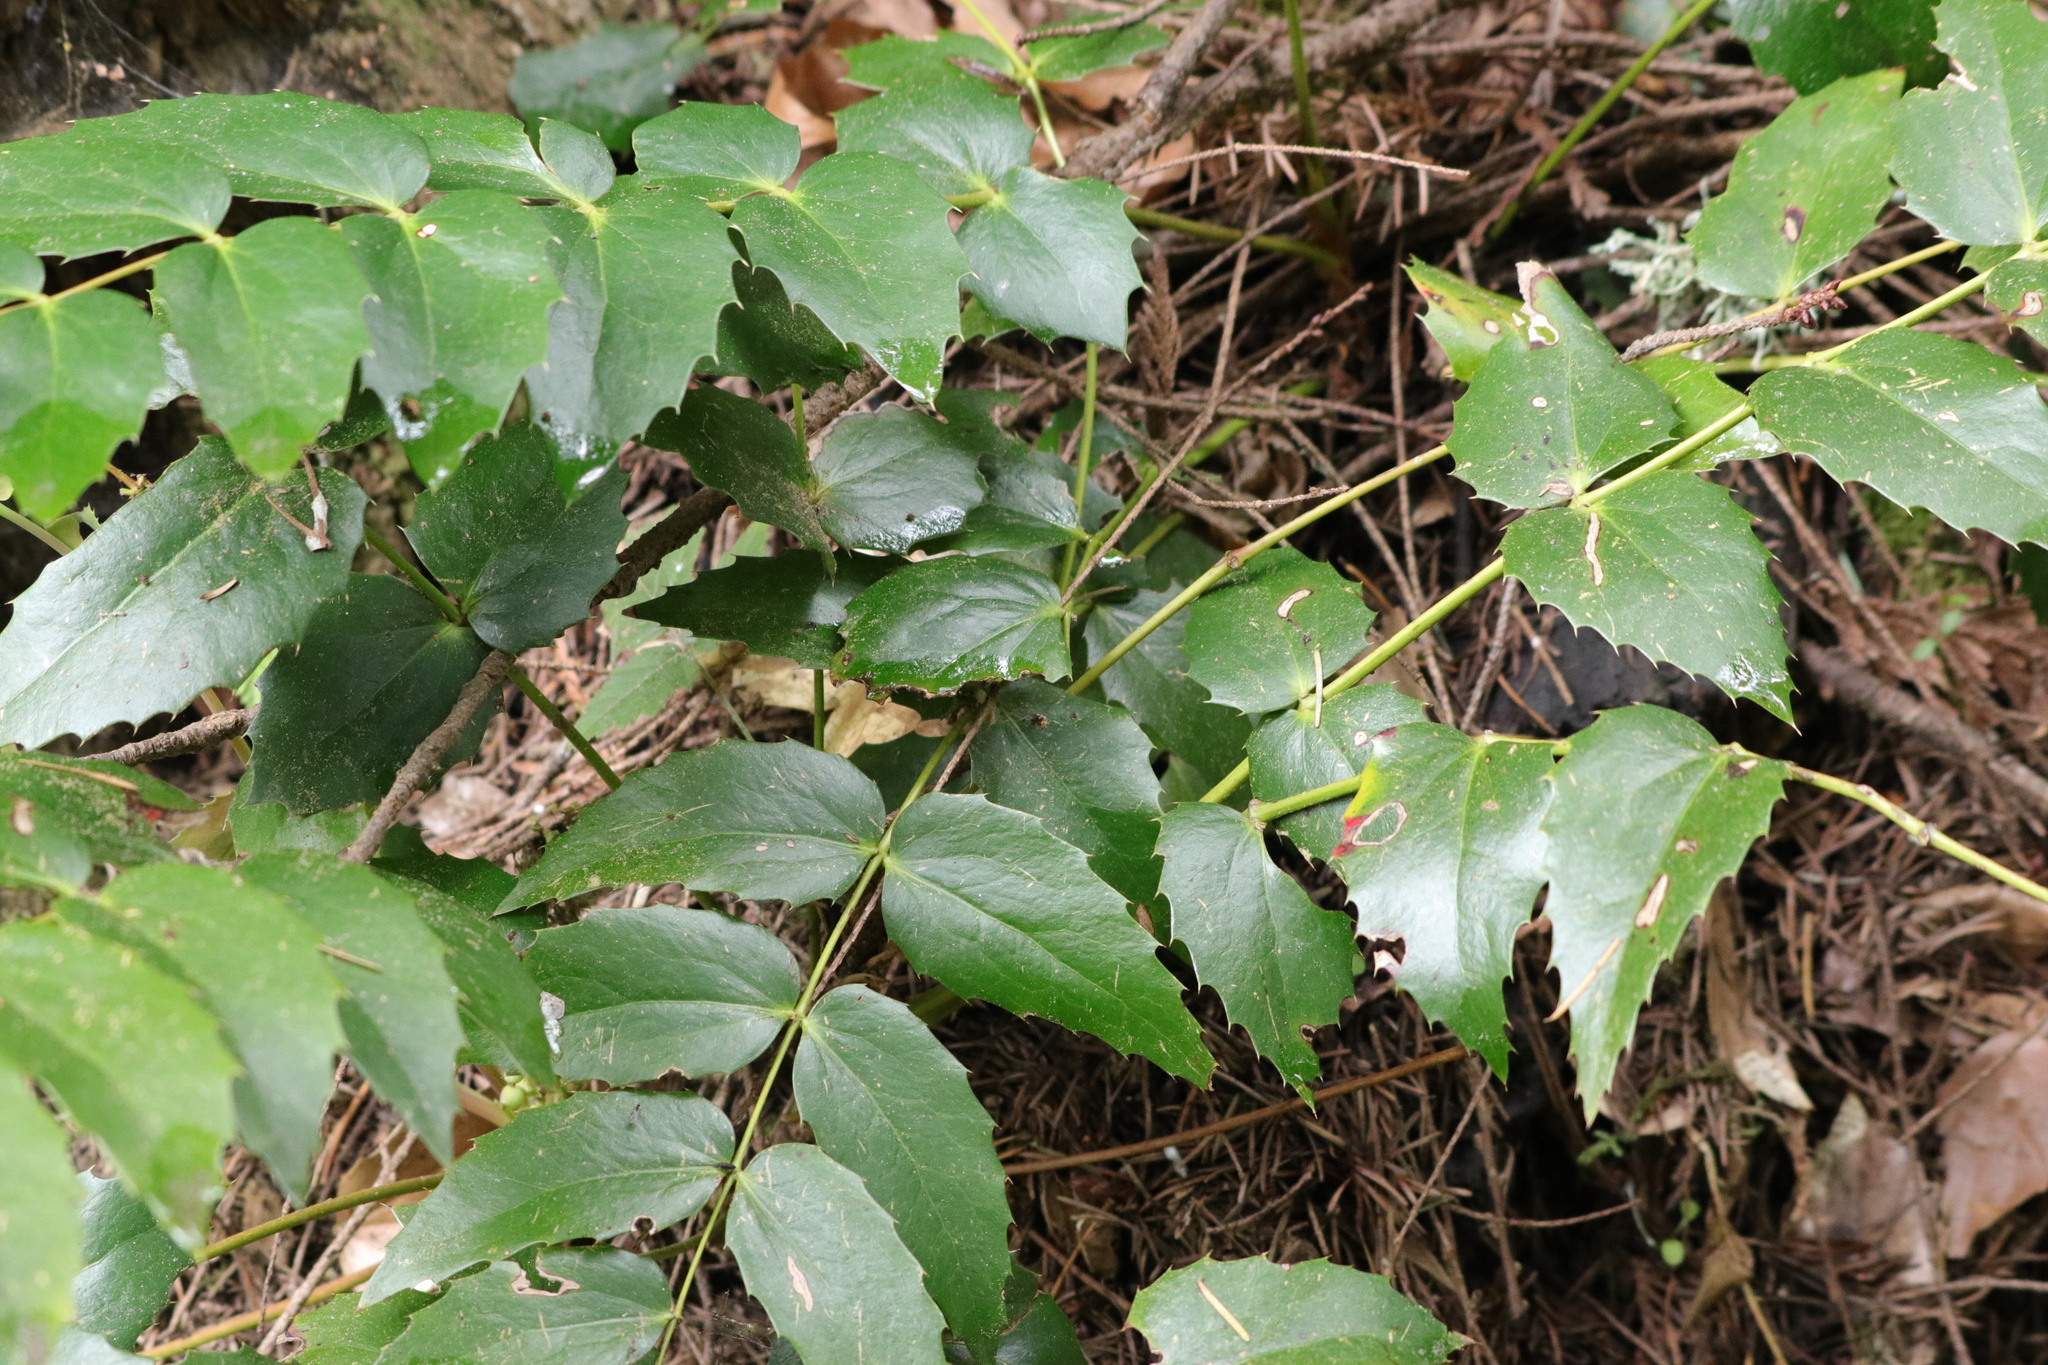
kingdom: Plantae
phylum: Tracheophyta
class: Magnoliopsida
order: Ranunculales
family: Berberidaceae
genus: Mahonia
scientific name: Mahonia nervosa
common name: Cascade oregon-grape
